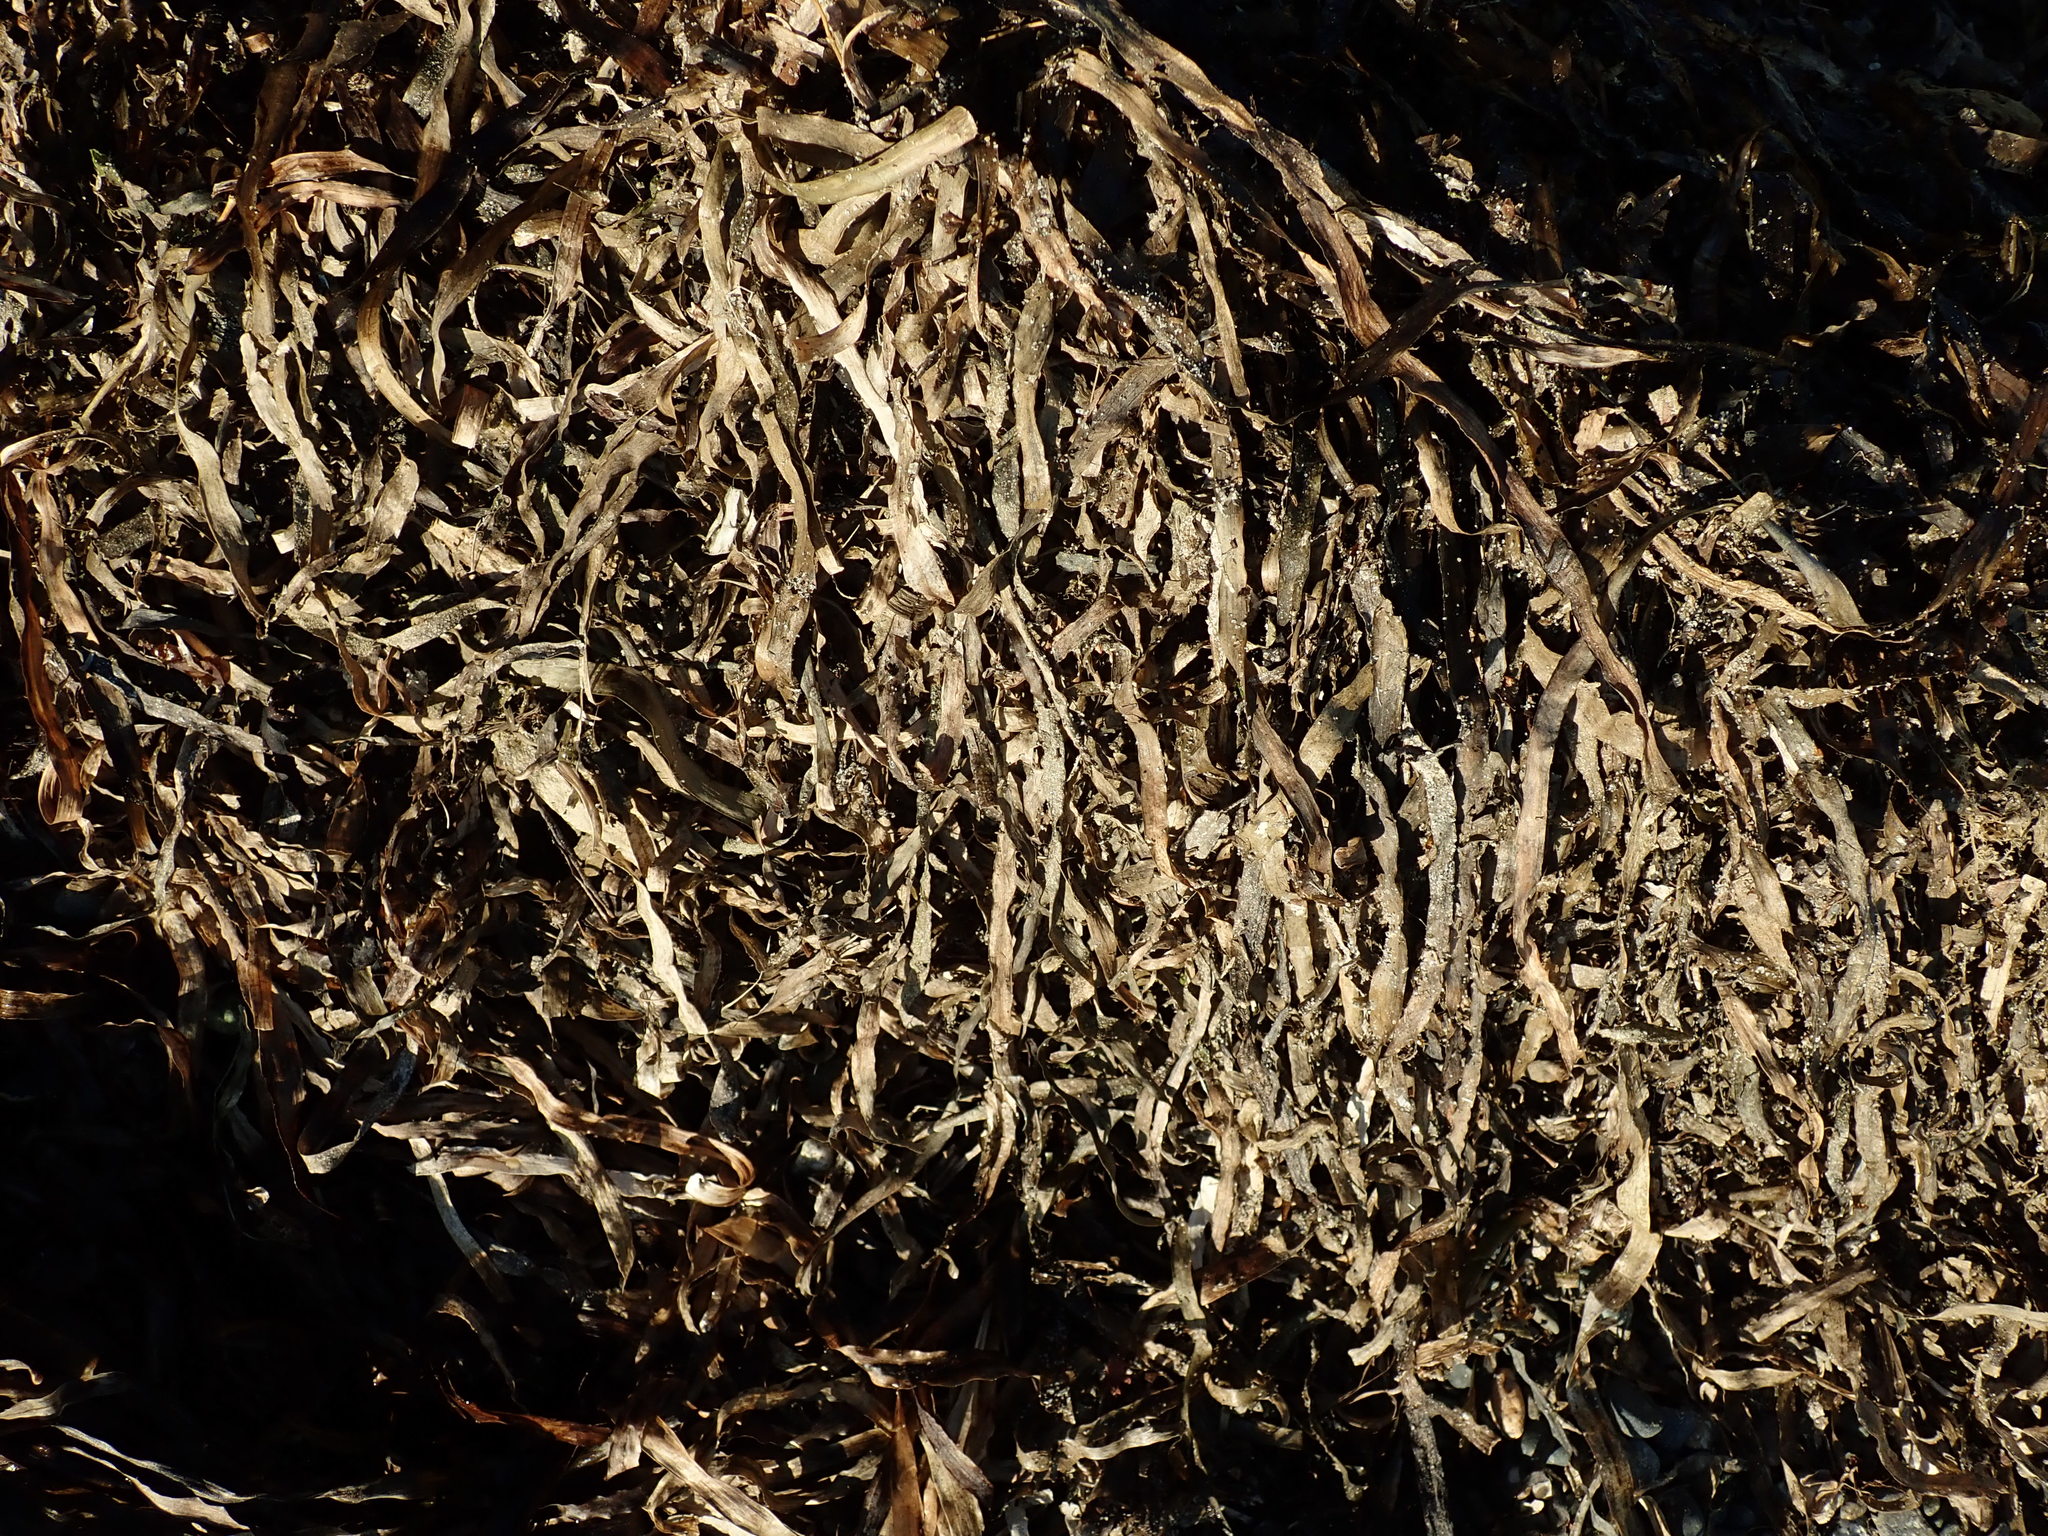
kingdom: Plantae
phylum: Tracheophyta
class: Liliopsida
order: Alismatales
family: Zosteraceae
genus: Zostera
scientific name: Zostera marina
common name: Eelgrass
